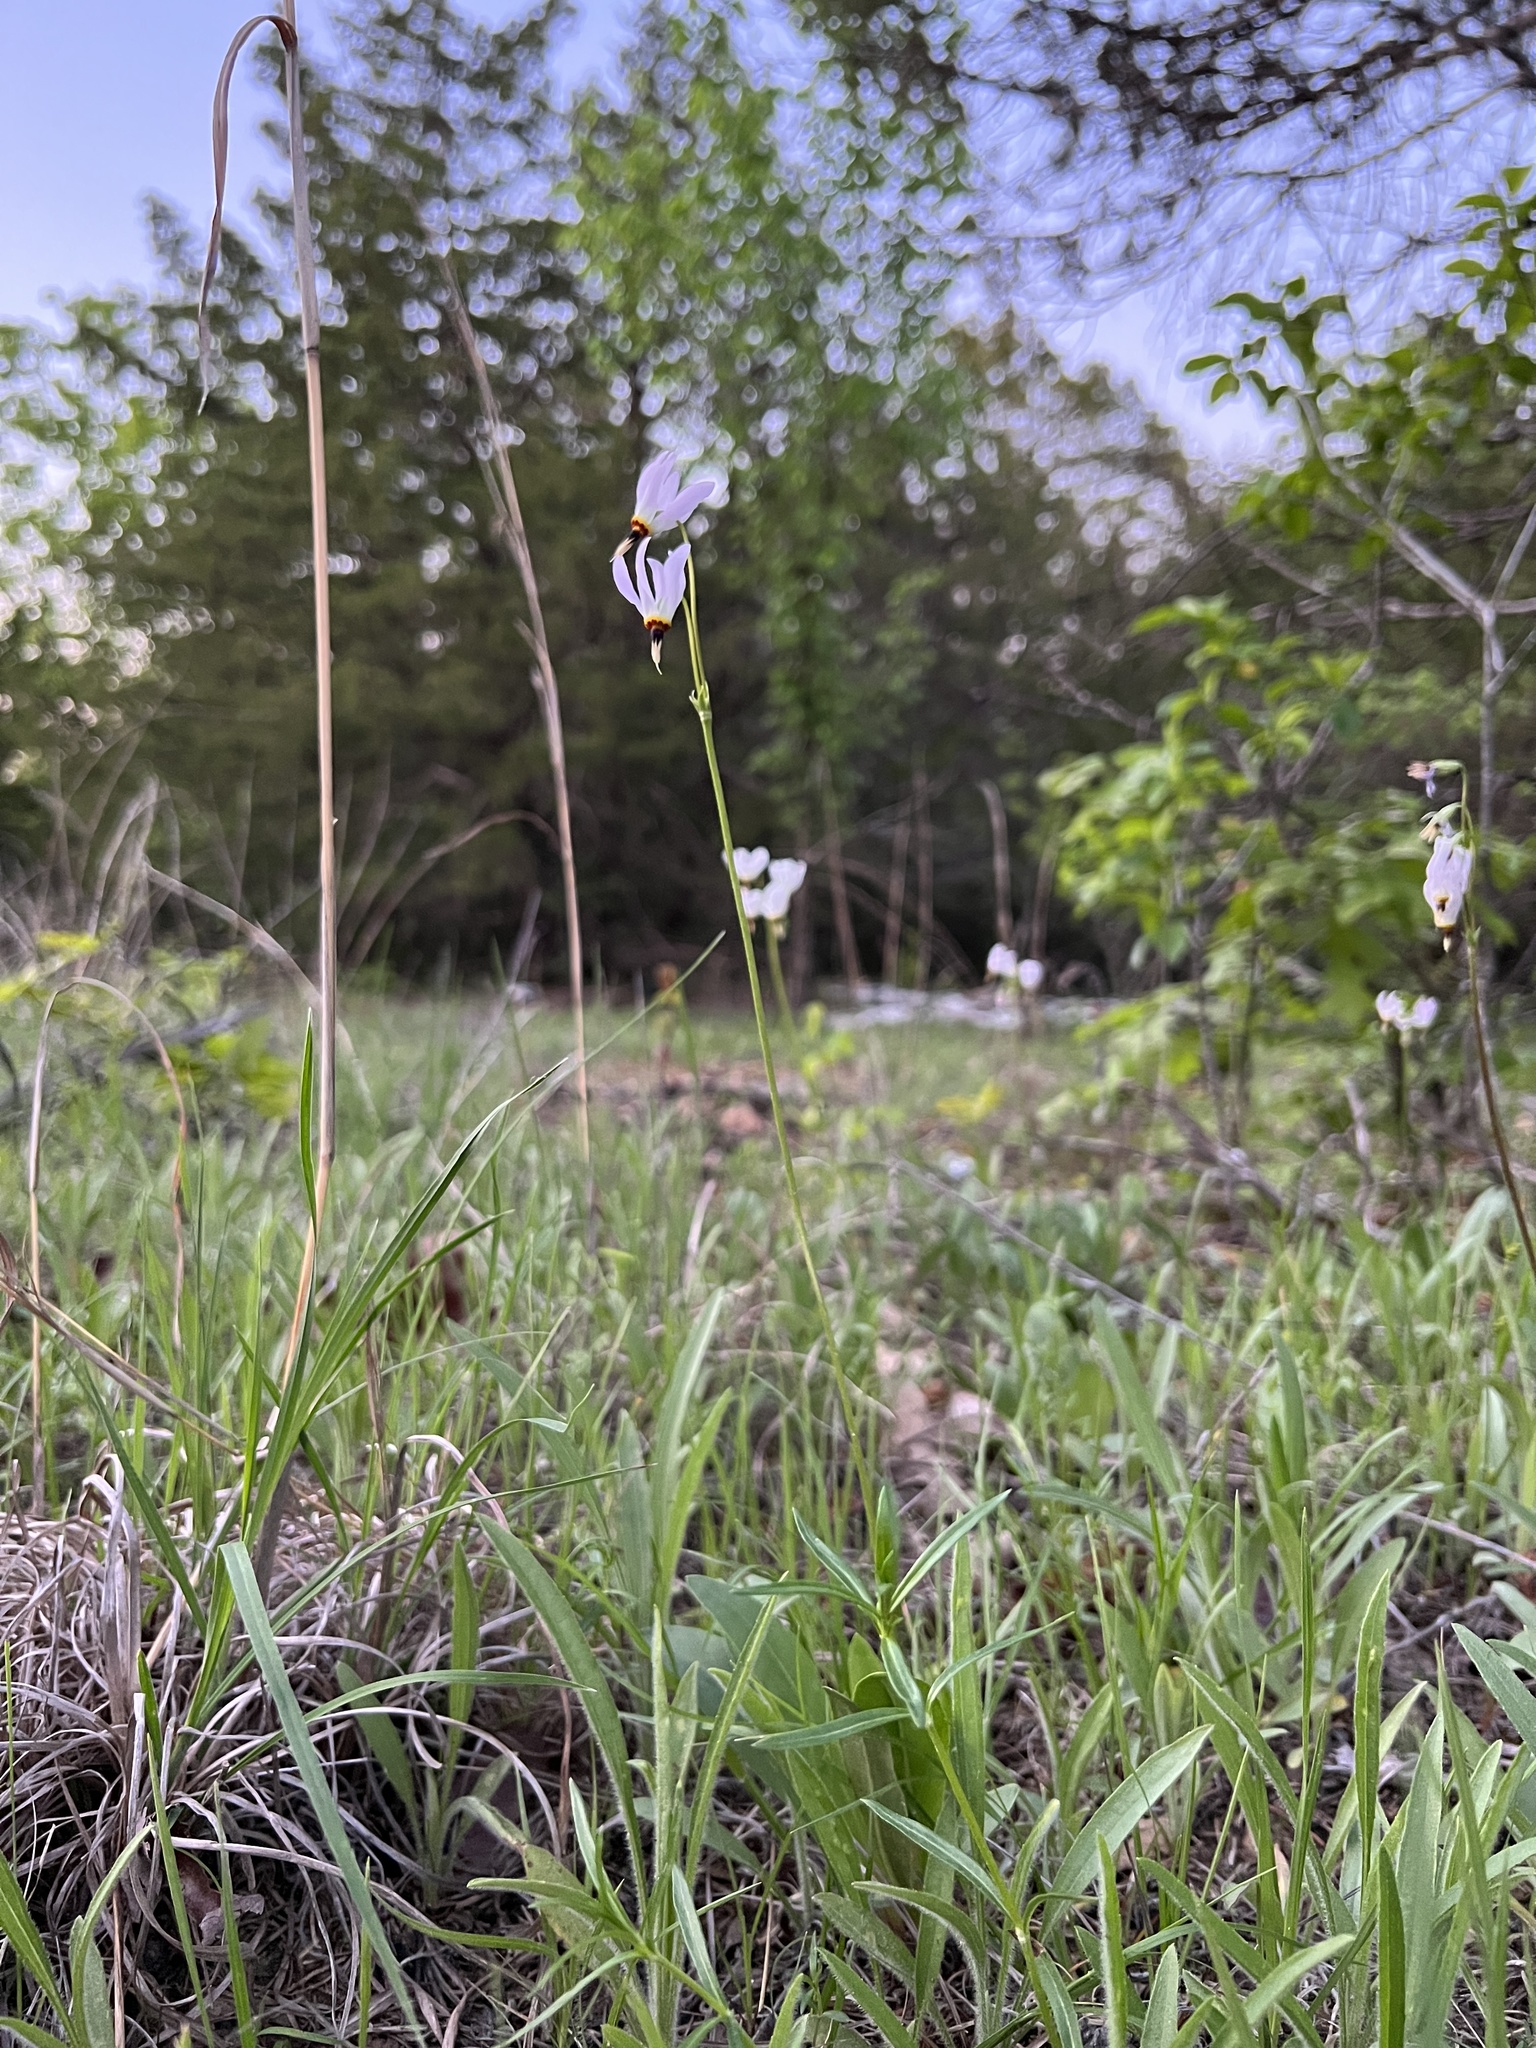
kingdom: Plantae
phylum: Tracheophyta
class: Magnoliopsida
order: Ericales
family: Primulaceae
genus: Dodecatheon
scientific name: Dodecatheon meadia
